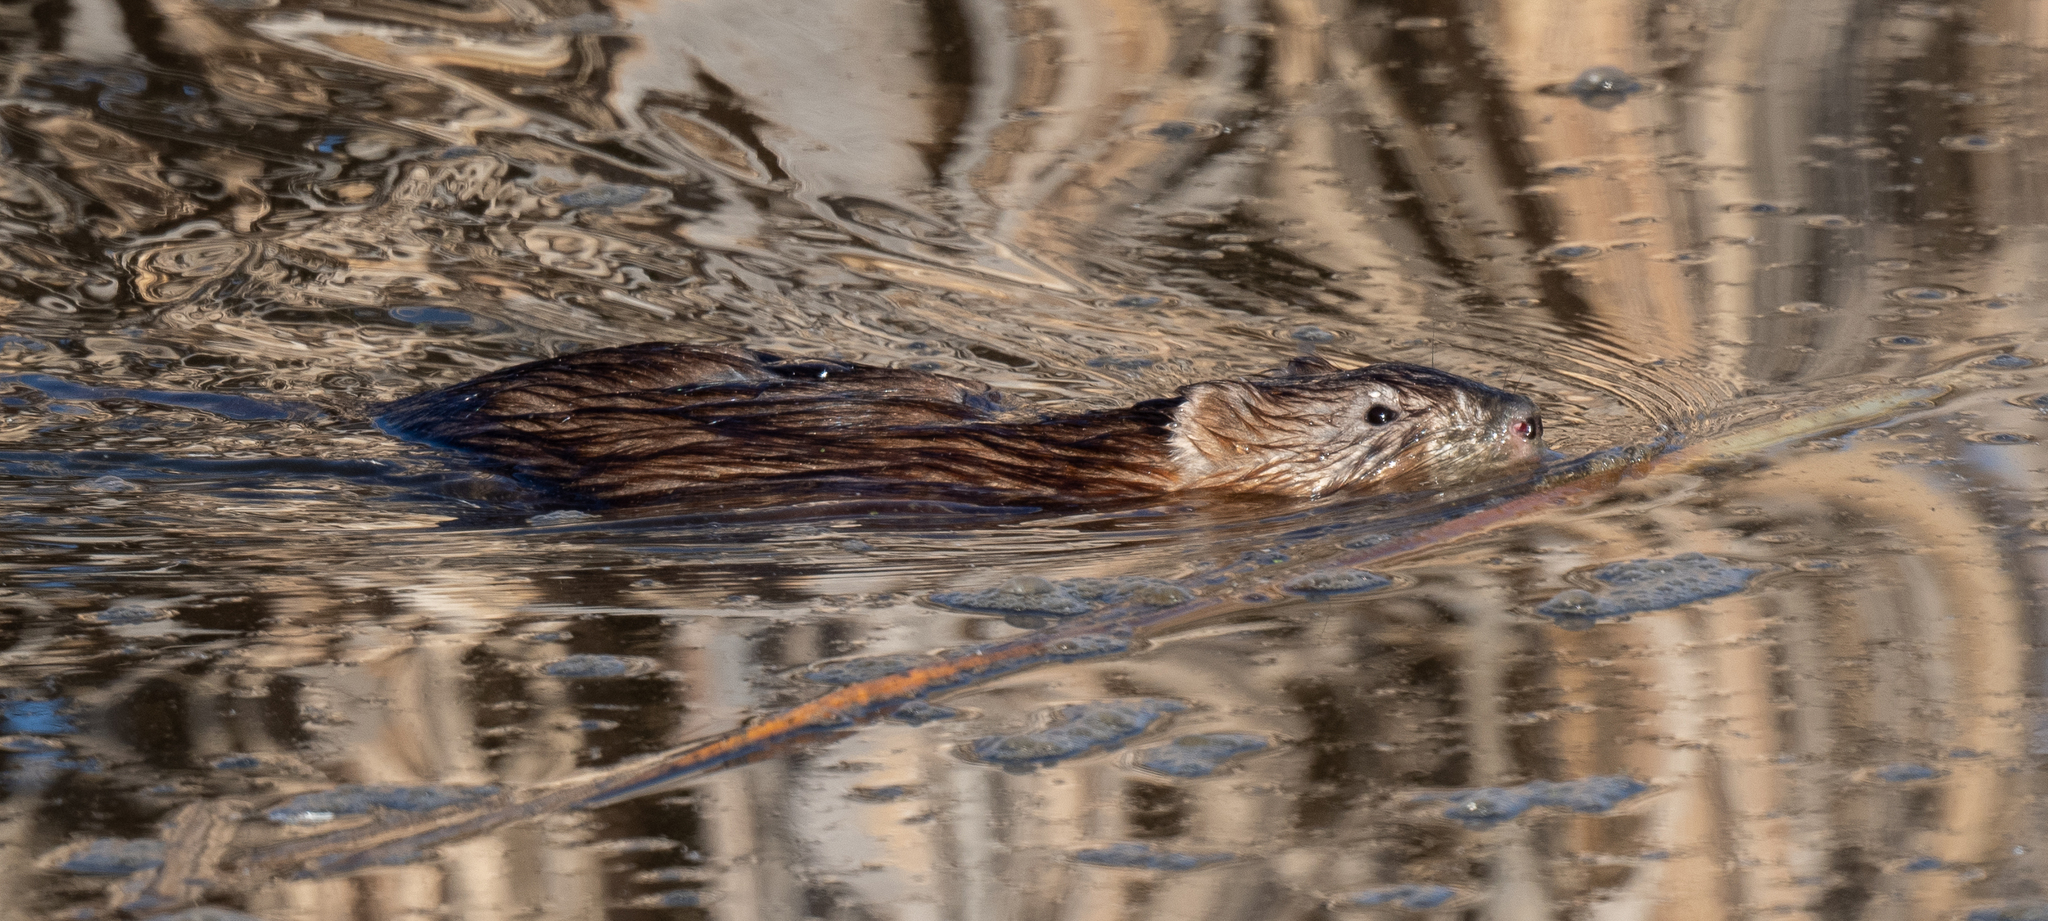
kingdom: Animalia
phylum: Chordata
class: Mammalia
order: Rodentia
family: Cricetidae
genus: Ondatra
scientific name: Ondatra zibethicus
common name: Muskrat
